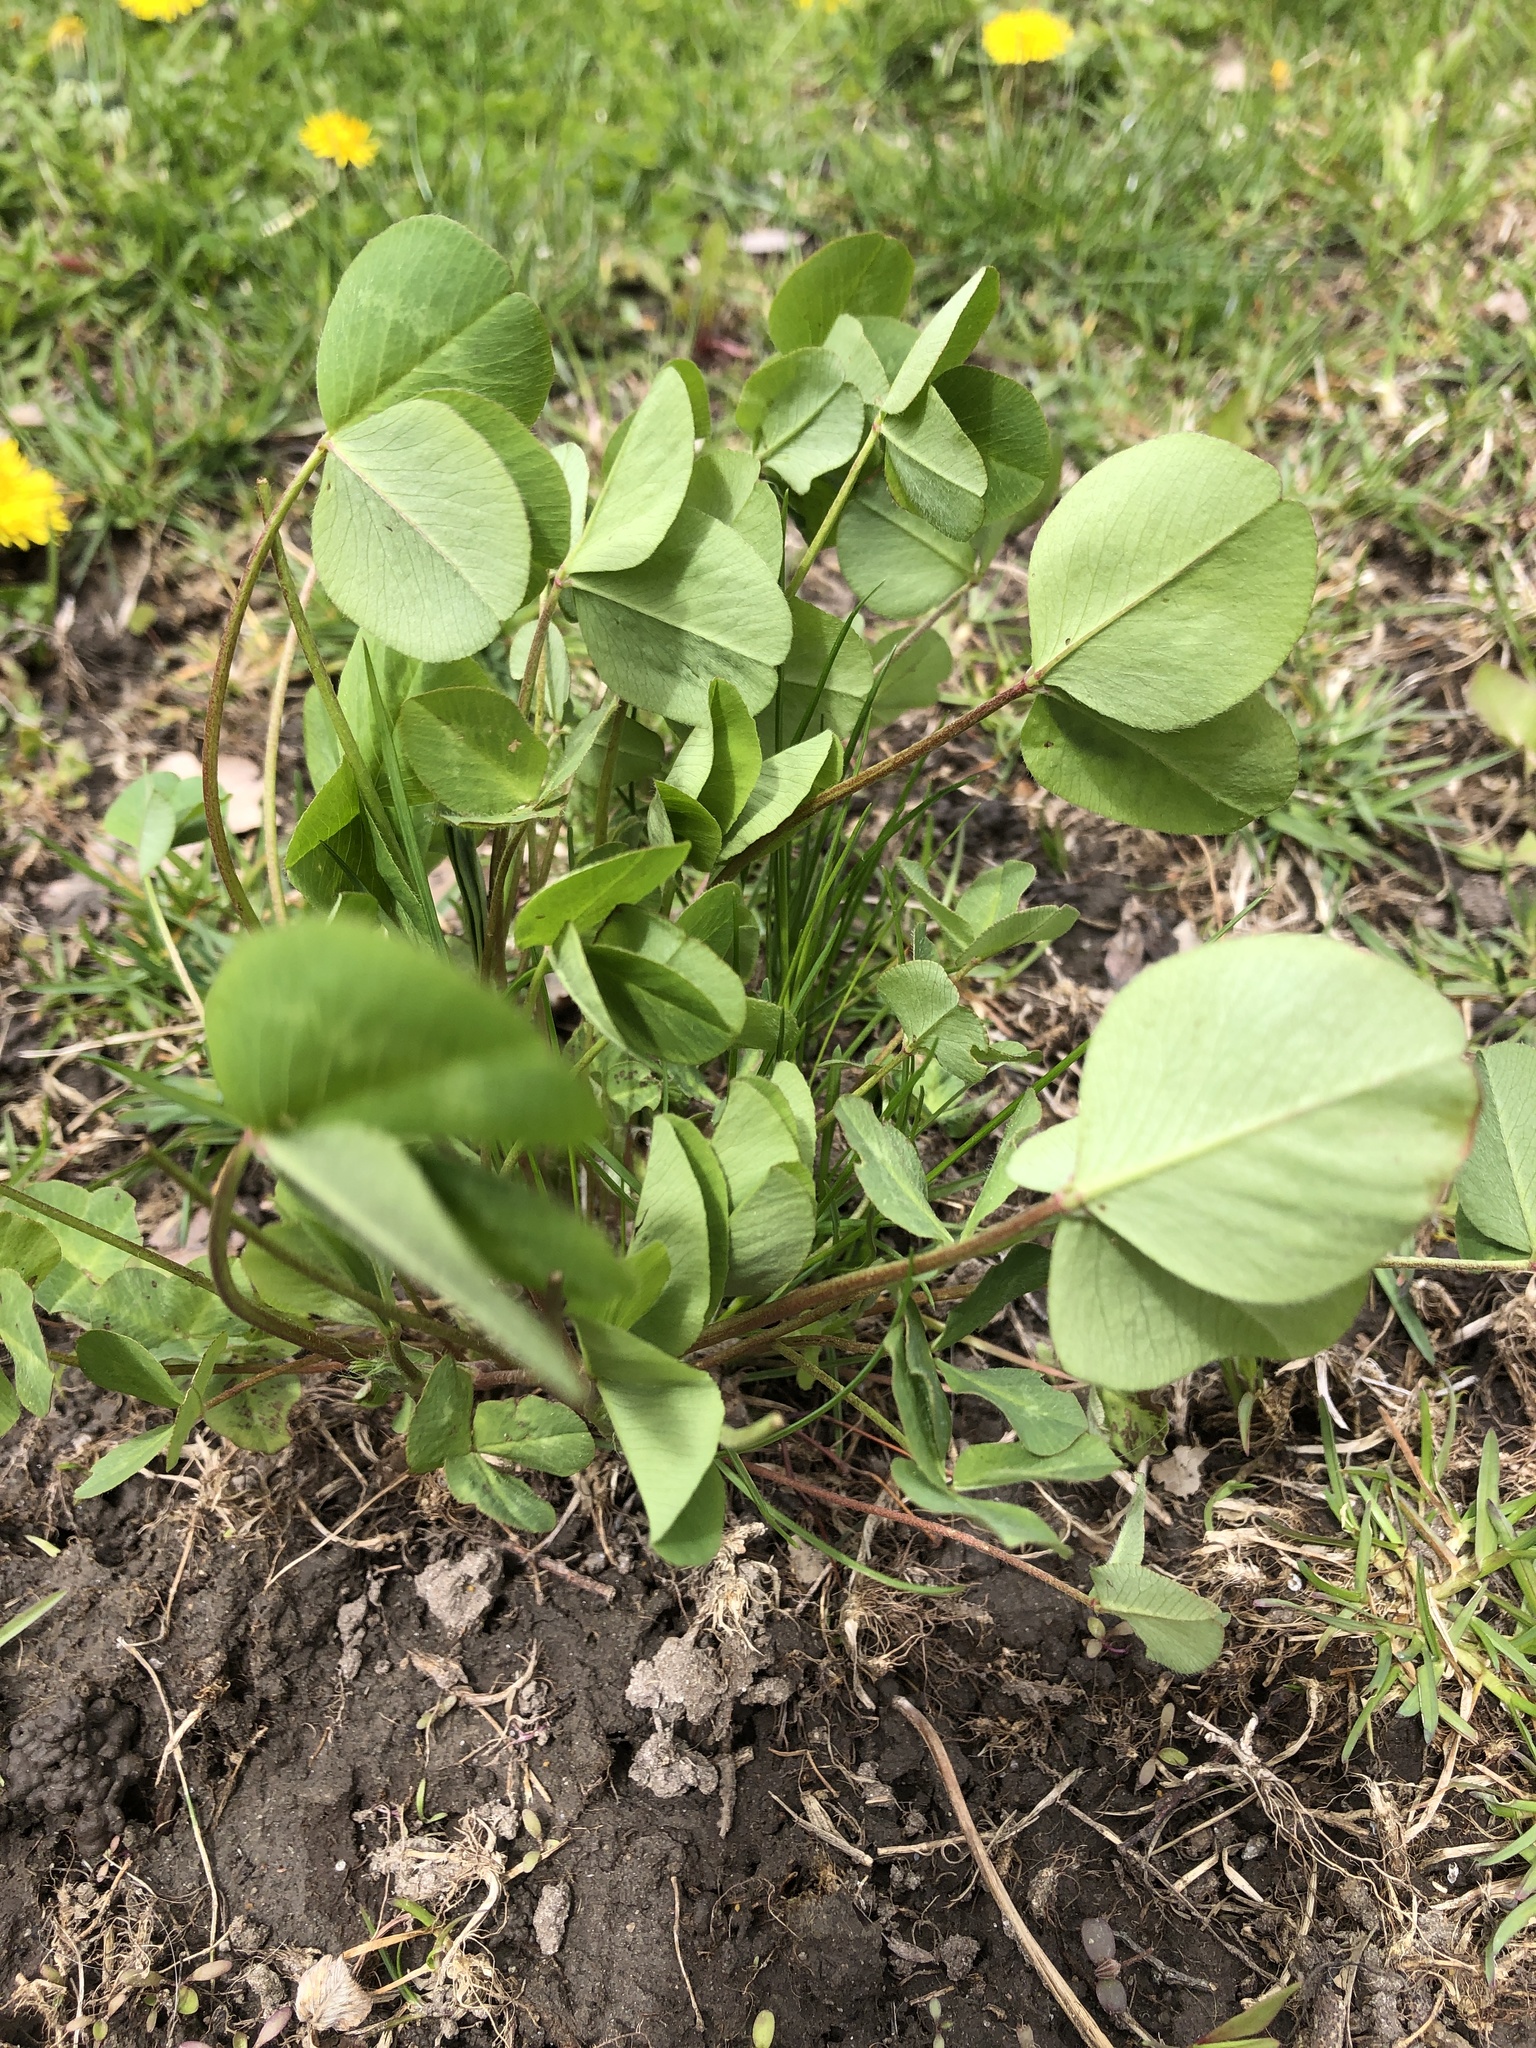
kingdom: Plantae
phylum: Tracheophyta
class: Magnoliopsida
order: Fabales
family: Fabaceae
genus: Trifolium
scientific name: Trifolium pratense
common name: Red clover
